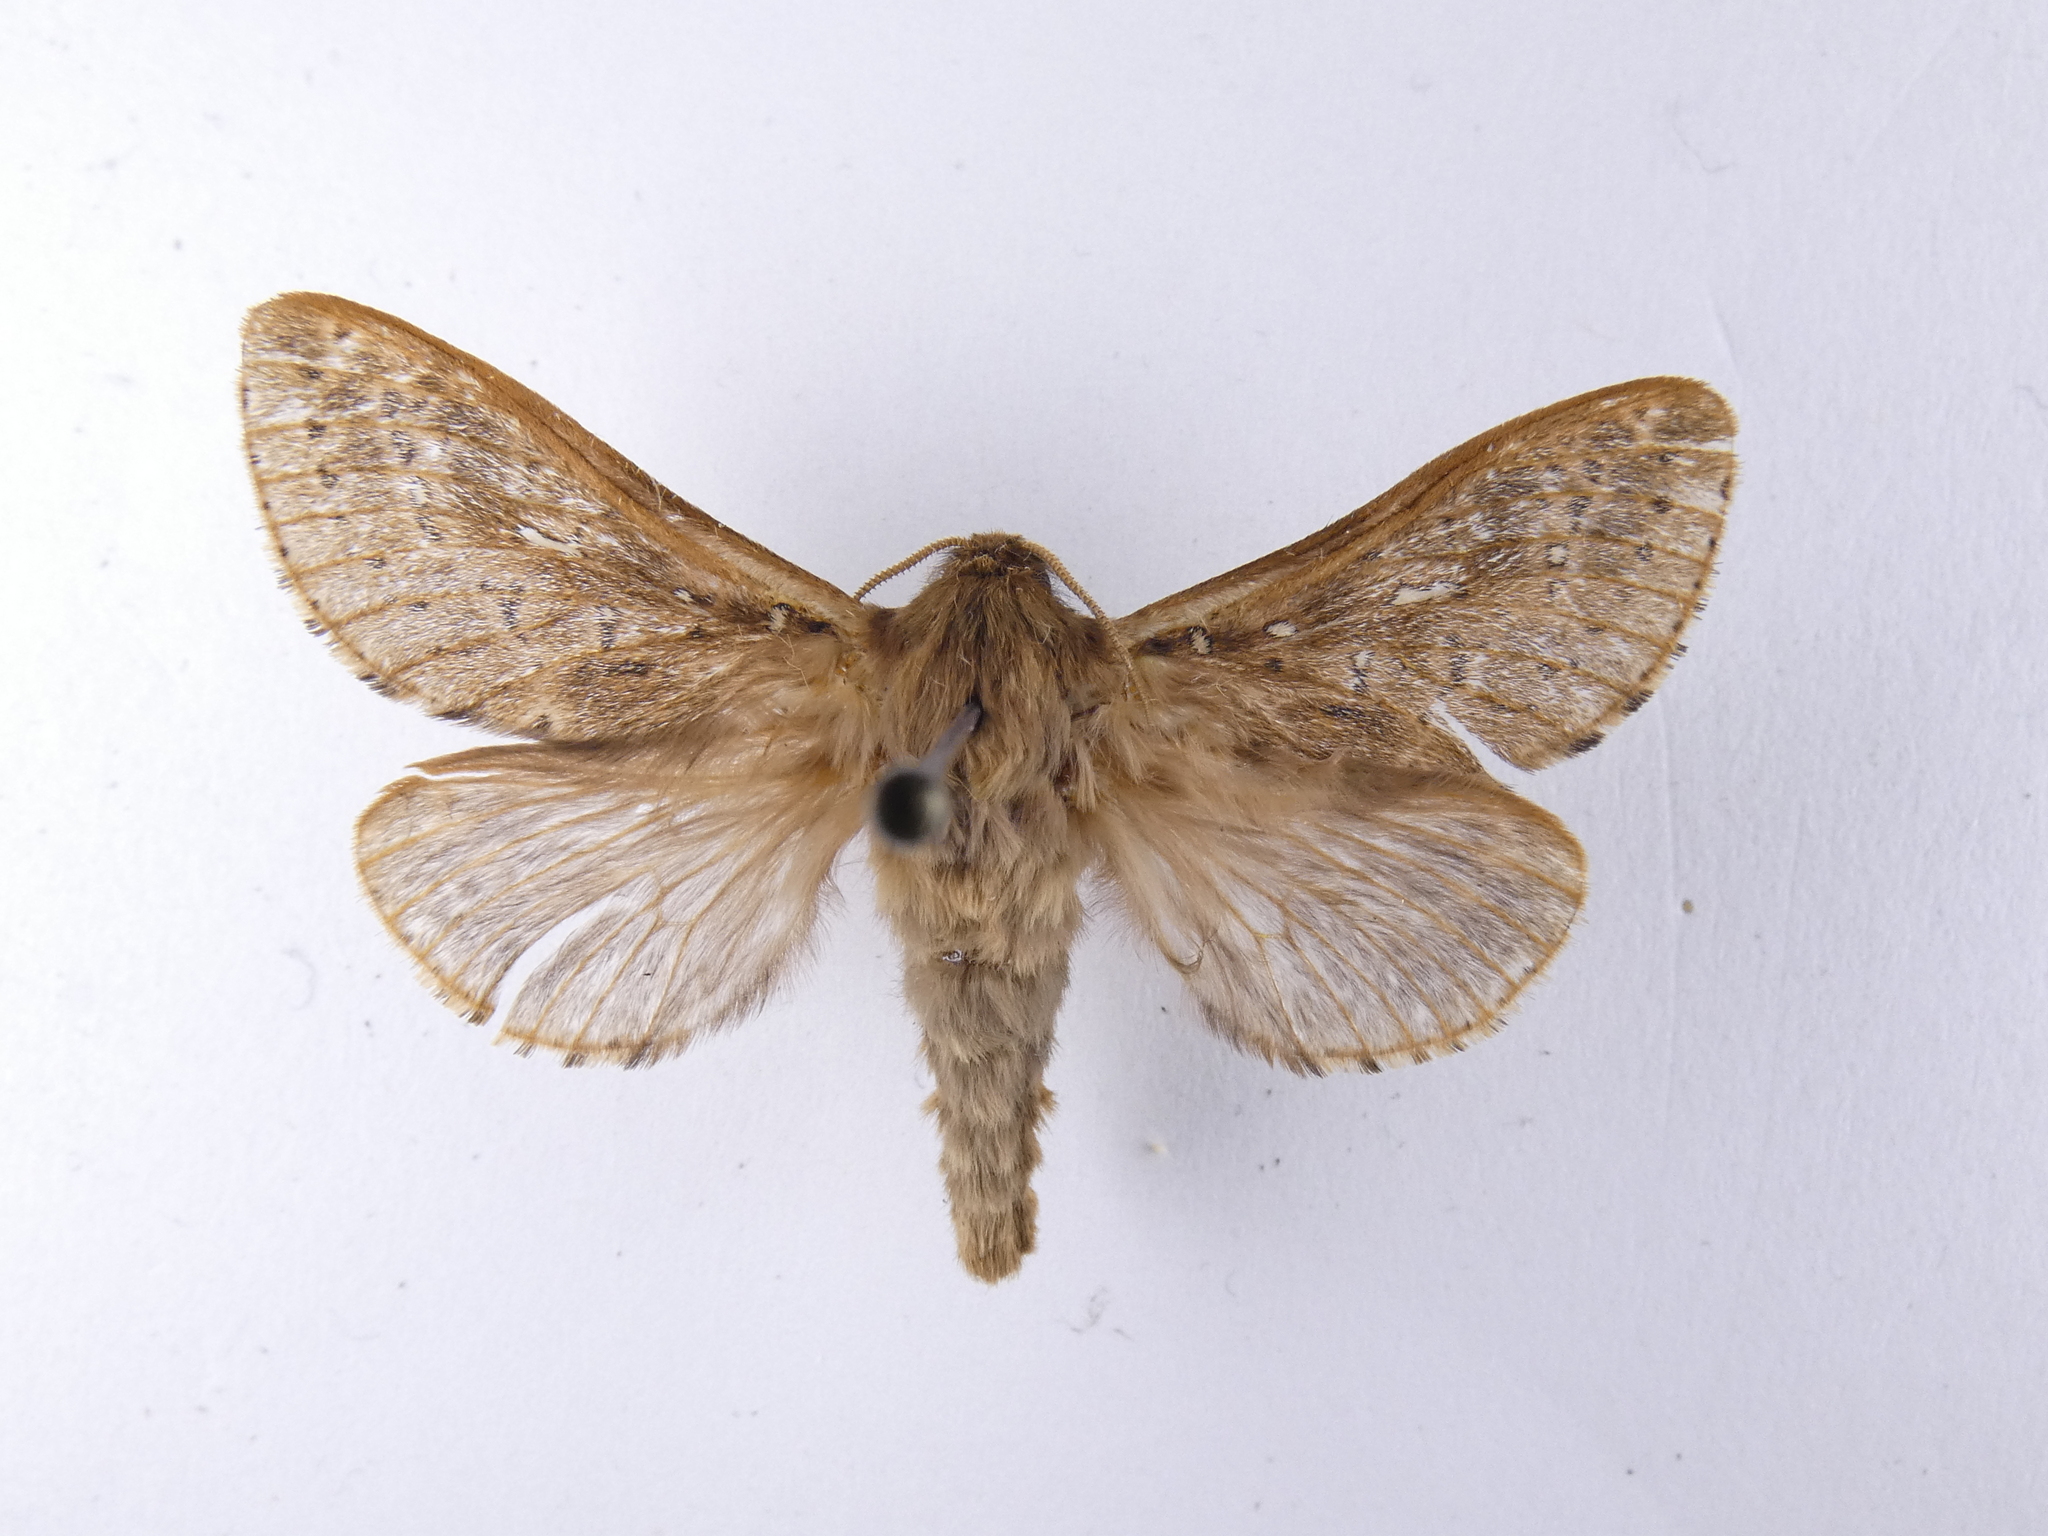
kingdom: Animalia
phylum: Arthropoda
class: Insecta
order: Lepidoptera
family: Hepialidae
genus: Wiseana
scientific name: Wiseana cervinata
